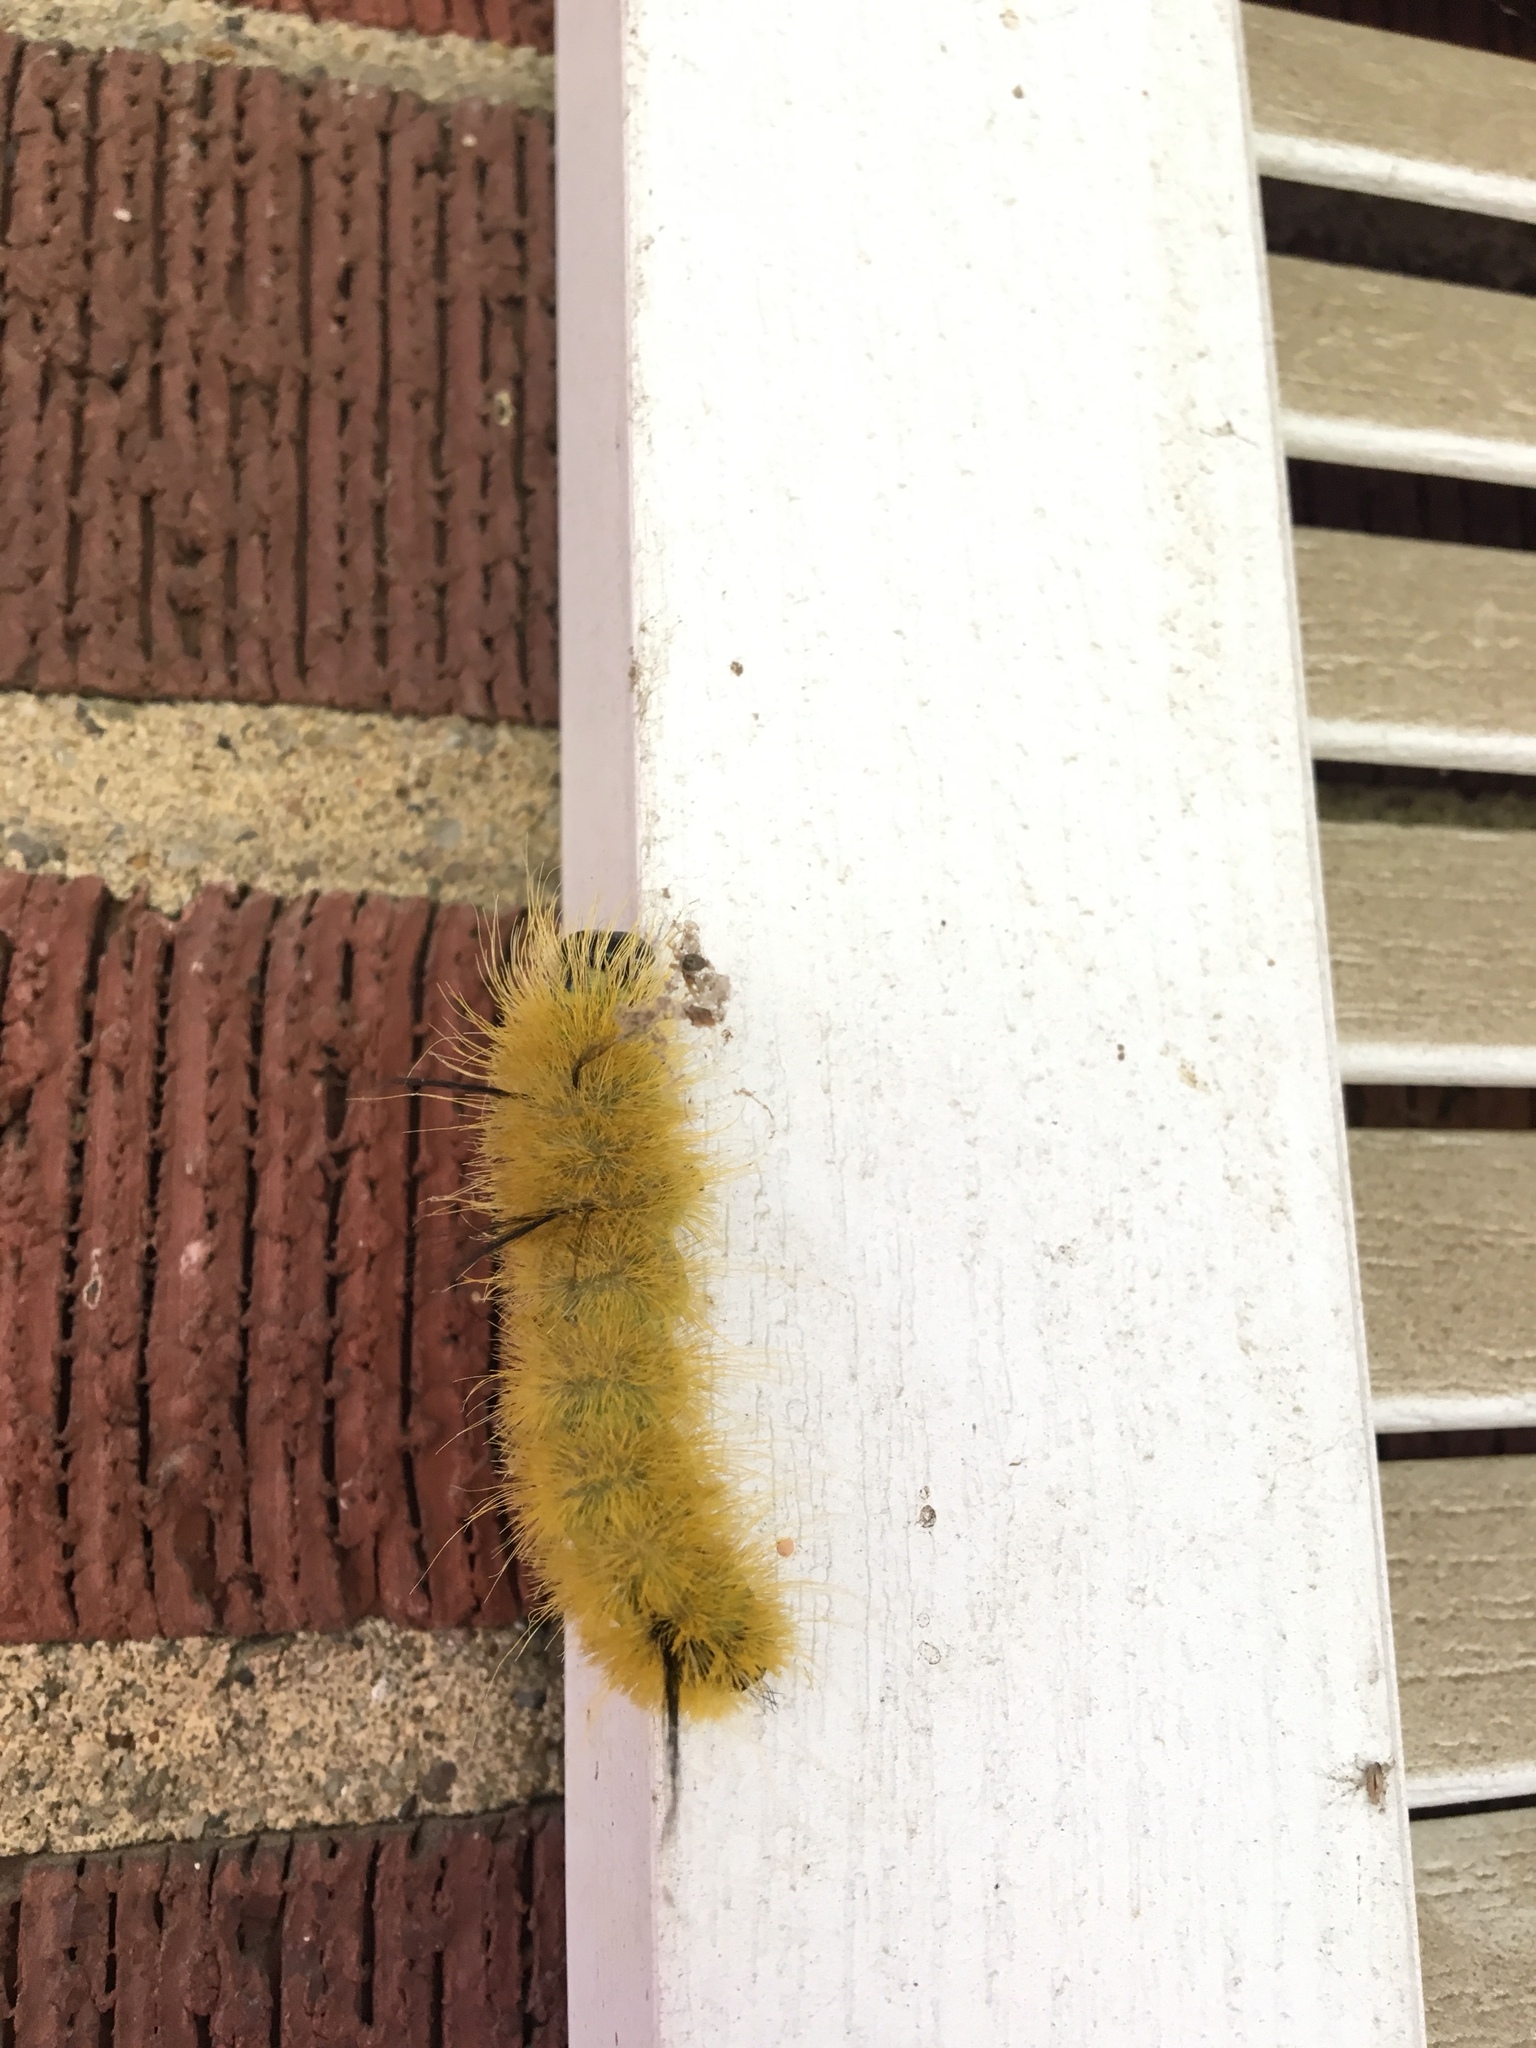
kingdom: Animalia
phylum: Arthropoda
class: Insecta
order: Lepidoptera
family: Noctuidae
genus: Acronicta
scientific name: Acronicta americana
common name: American dagger
